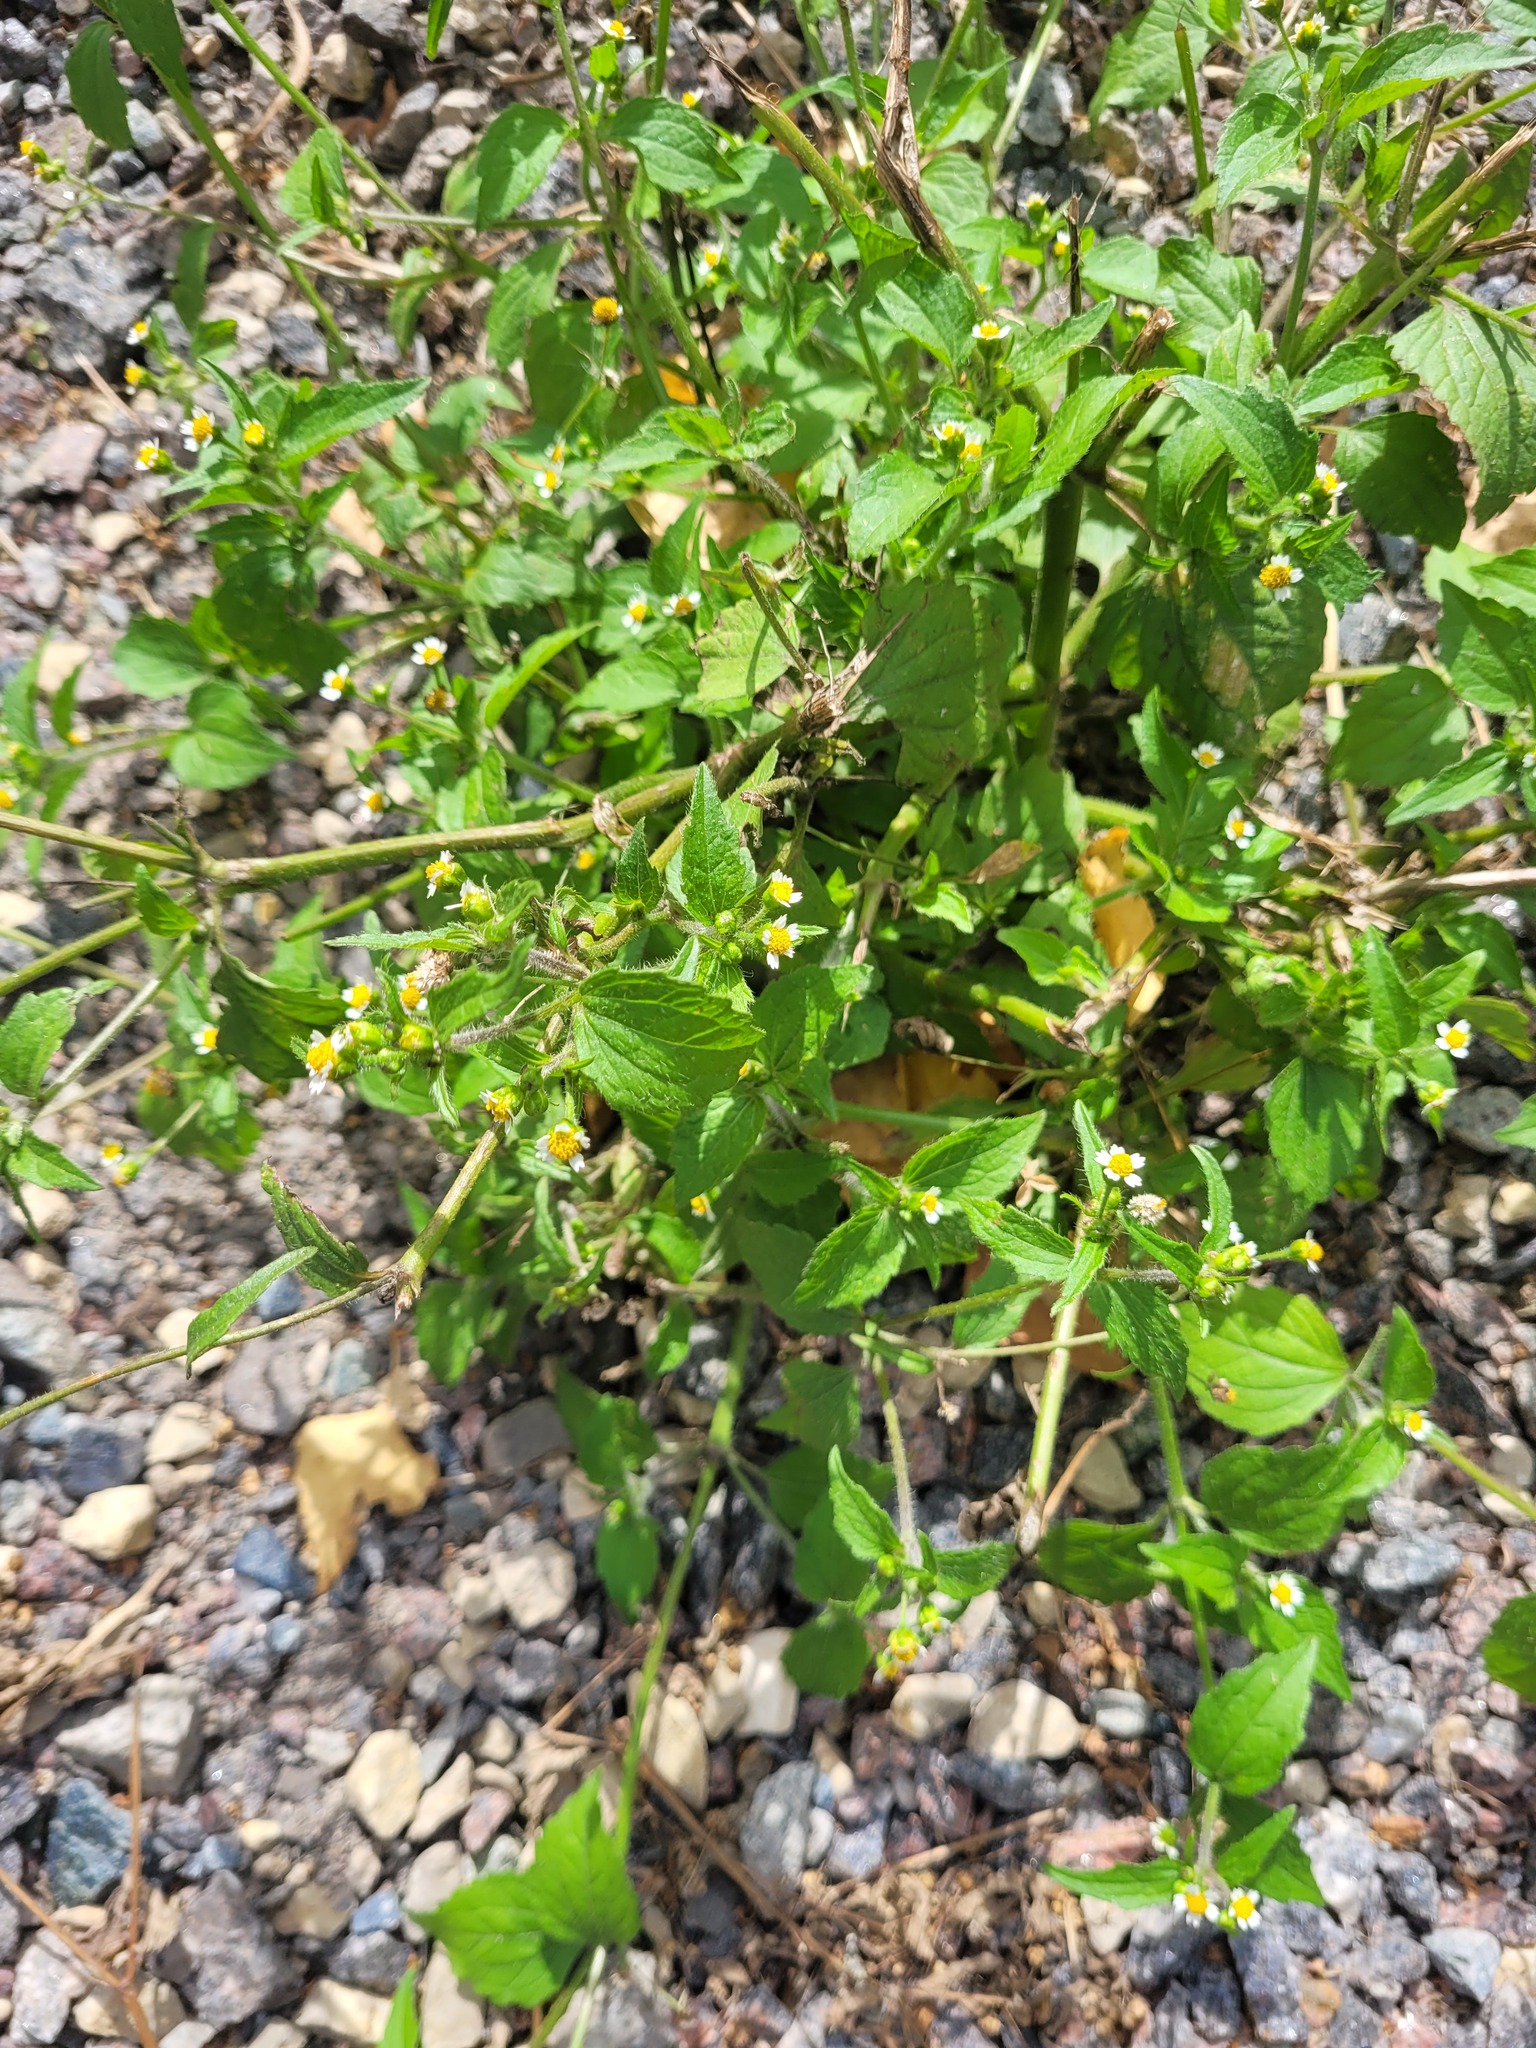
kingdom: Plantae
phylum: Tracheophyta
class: Magnoliopsida
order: Asterales
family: Asteraceae
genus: Galinsoga
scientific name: Galinsoga quadriradiata
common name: Shaggy soldier
